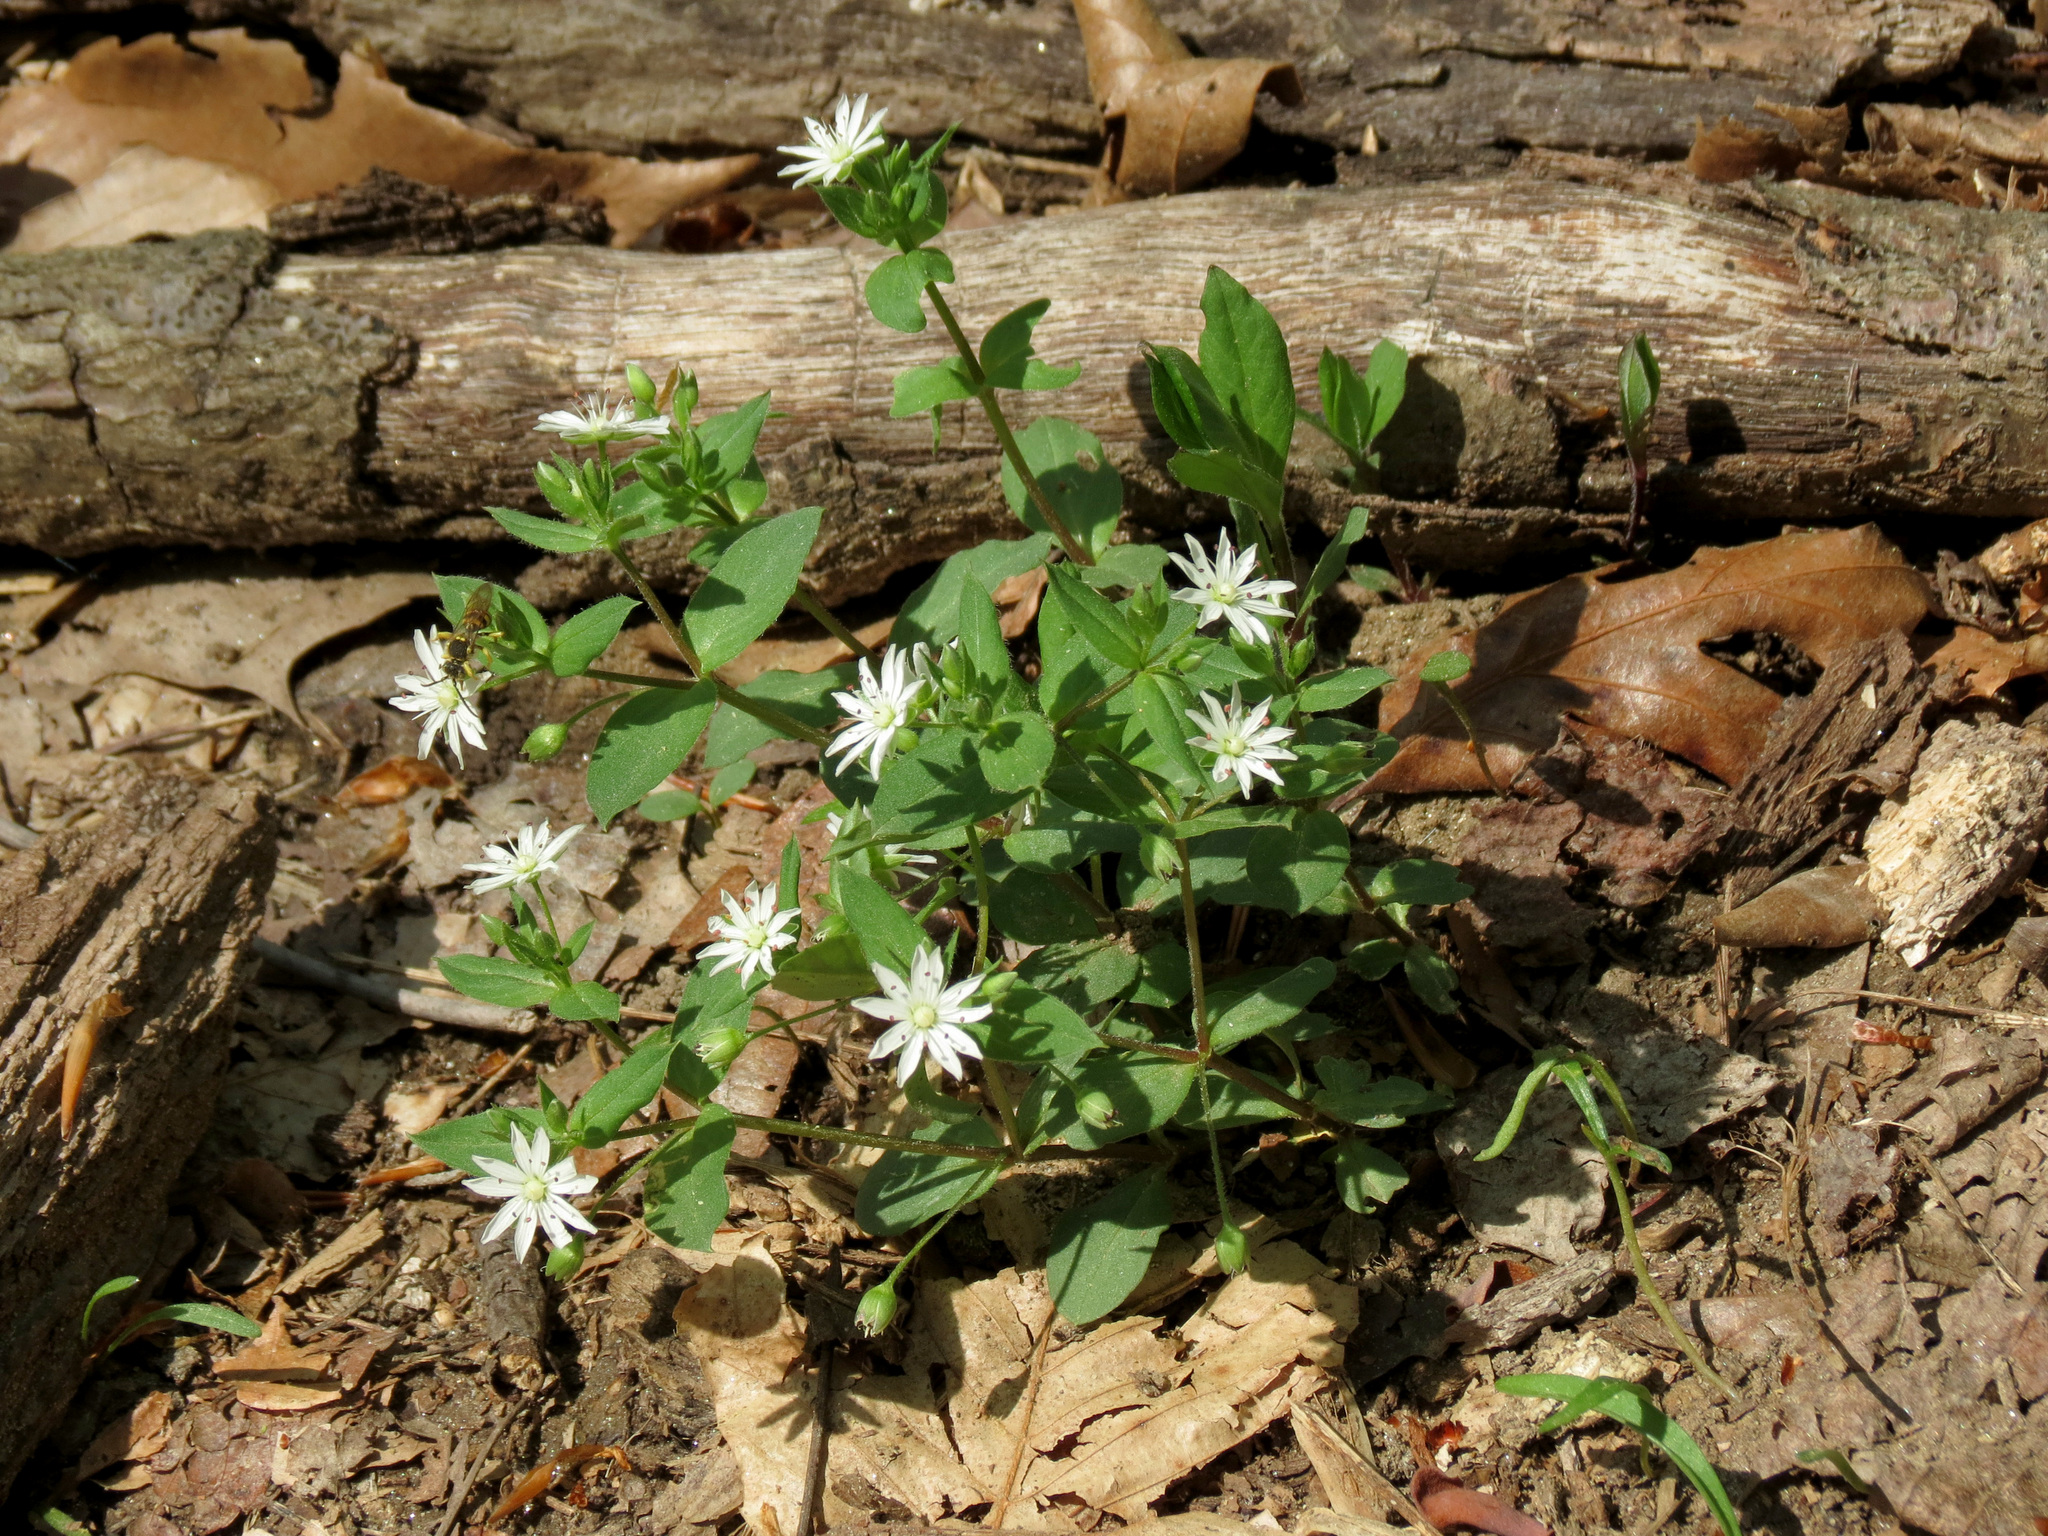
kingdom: Plantae
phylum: Tracheophyta
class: Magnoliopsida
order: Caryophyllales
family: Caryophyllaceae
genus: Stellaria
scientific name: Stellaria pubera
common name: Star chickweed
